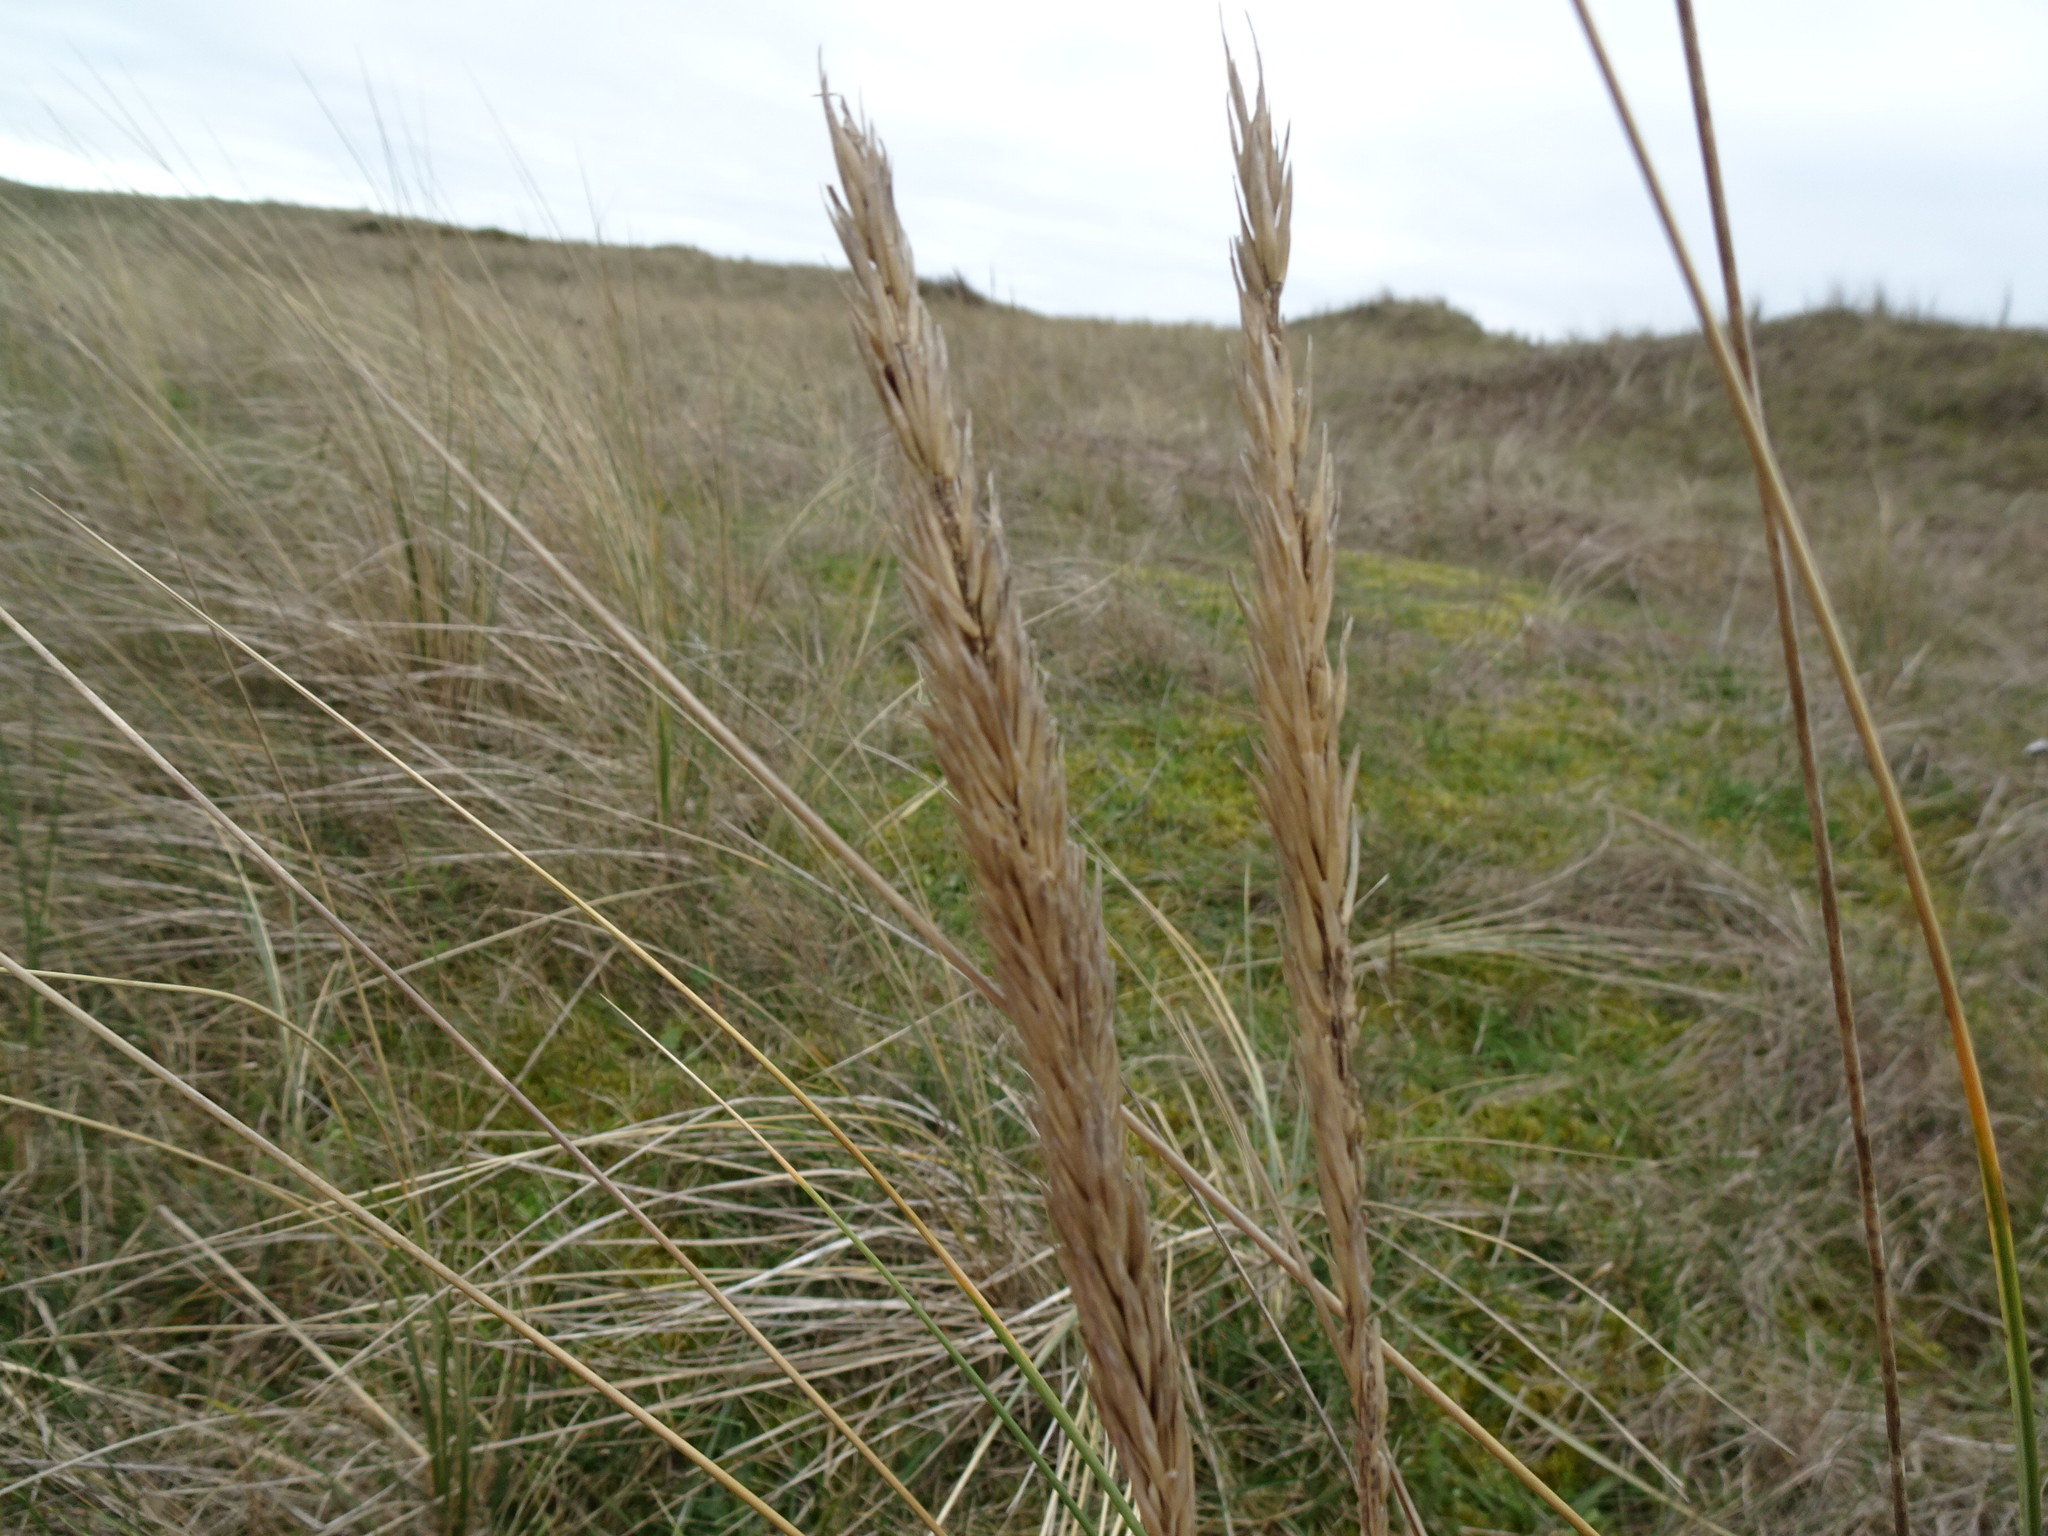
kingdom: Plantae
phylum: Tracheophyta
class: Liliopsida
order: Poales
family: Poaceae
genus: Calamagrostis
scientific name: Calamagrostis arenaria
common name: European beachgrass
